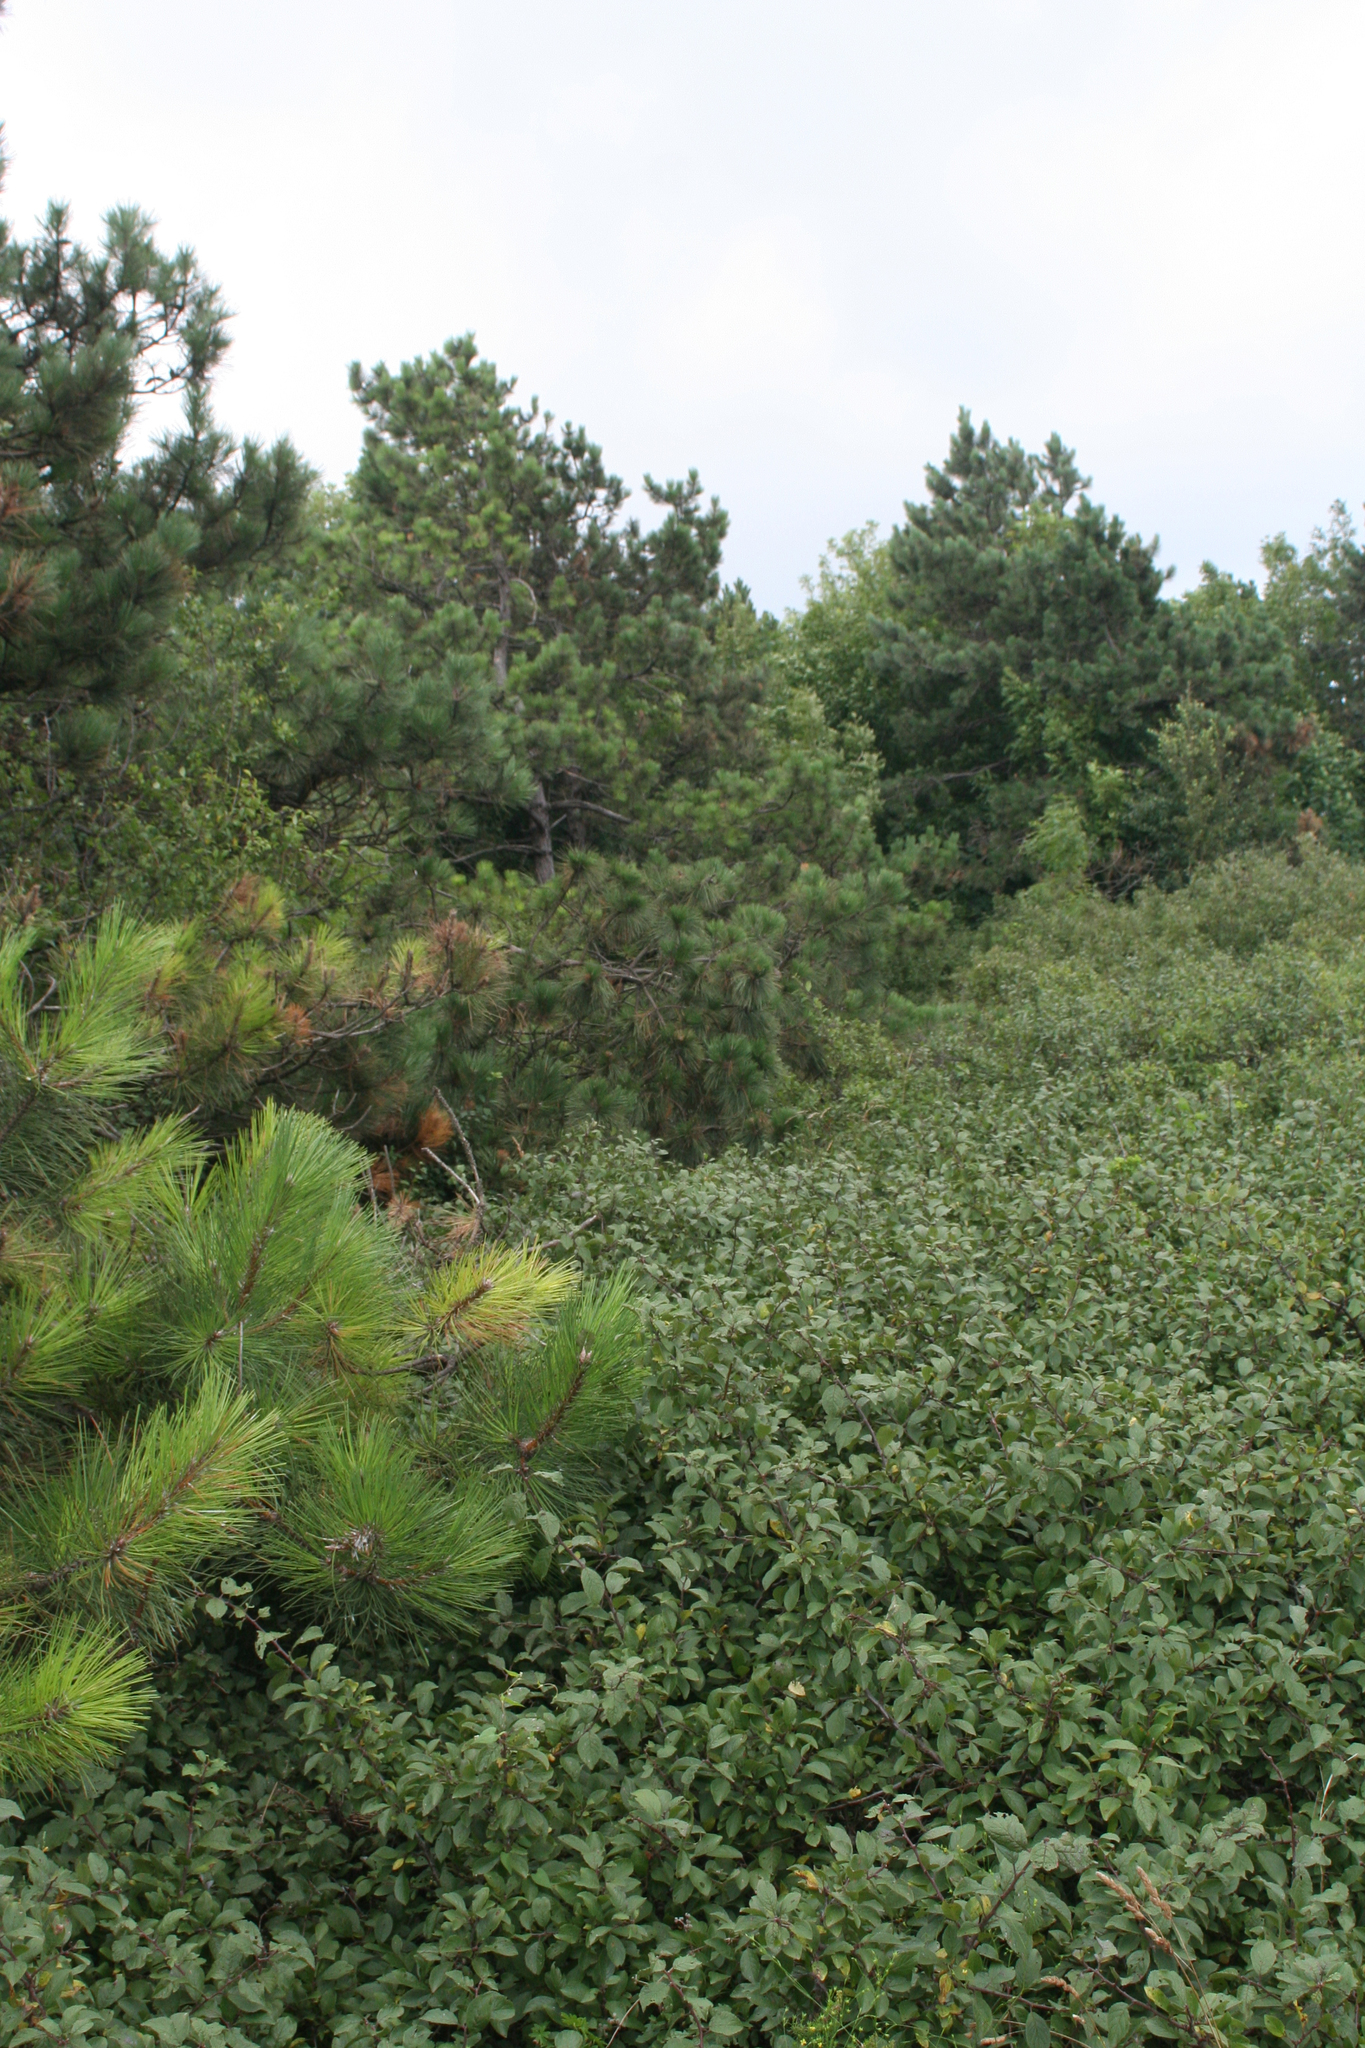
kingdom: Plantae
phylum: Tracheophyta
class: Pinopsida
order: Pinales
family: Pinaceae
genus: Pinus
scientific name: Pinus brutia
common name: Turkish pine
